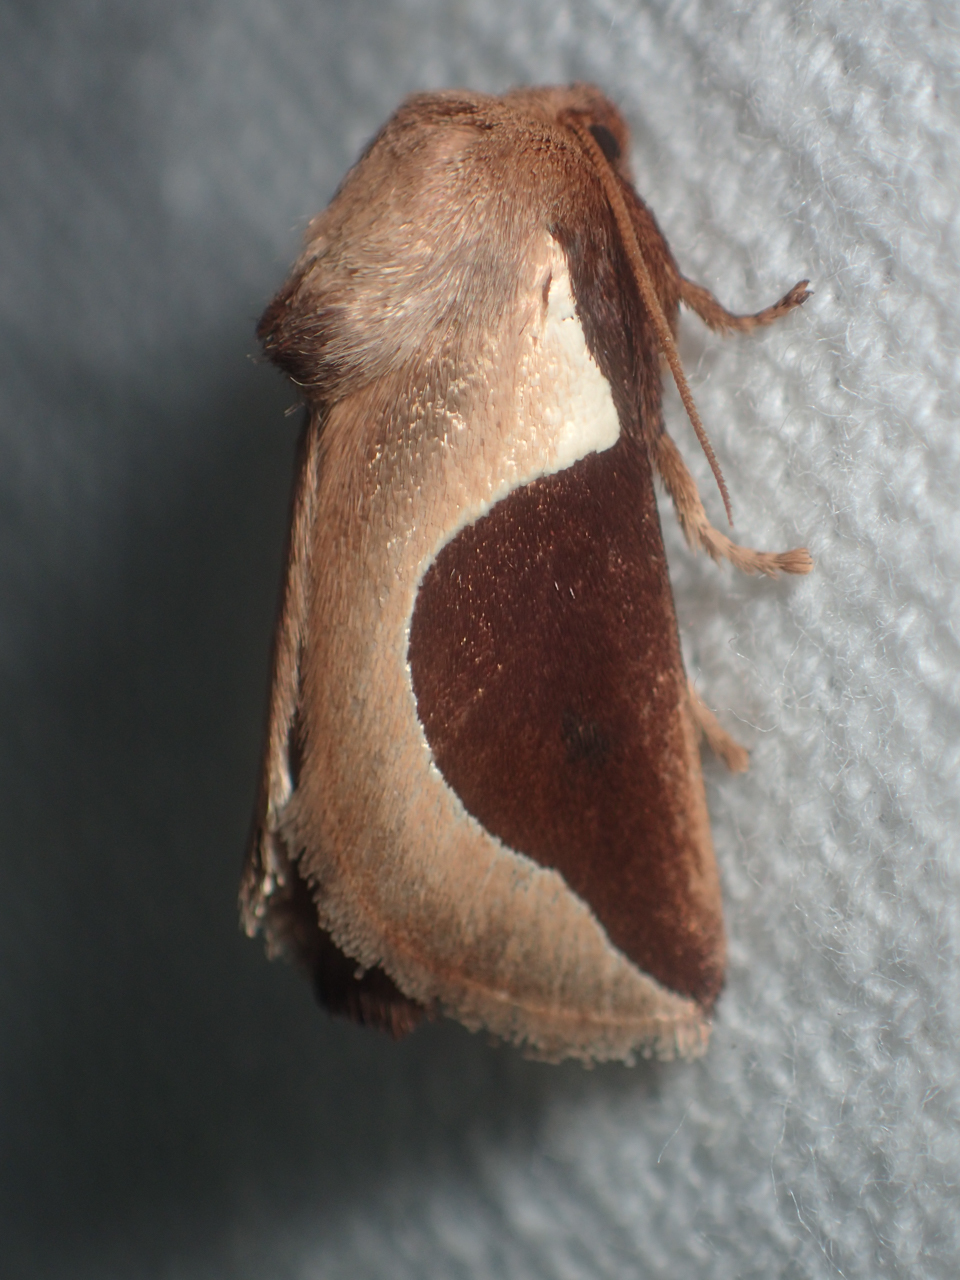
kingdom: Animalia
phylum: Arthropoda
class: Insecta
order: Lepidoptera
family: Limacodidae
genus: Prolimacodes
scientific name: Prolimacodes badia
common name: Skiff moth
